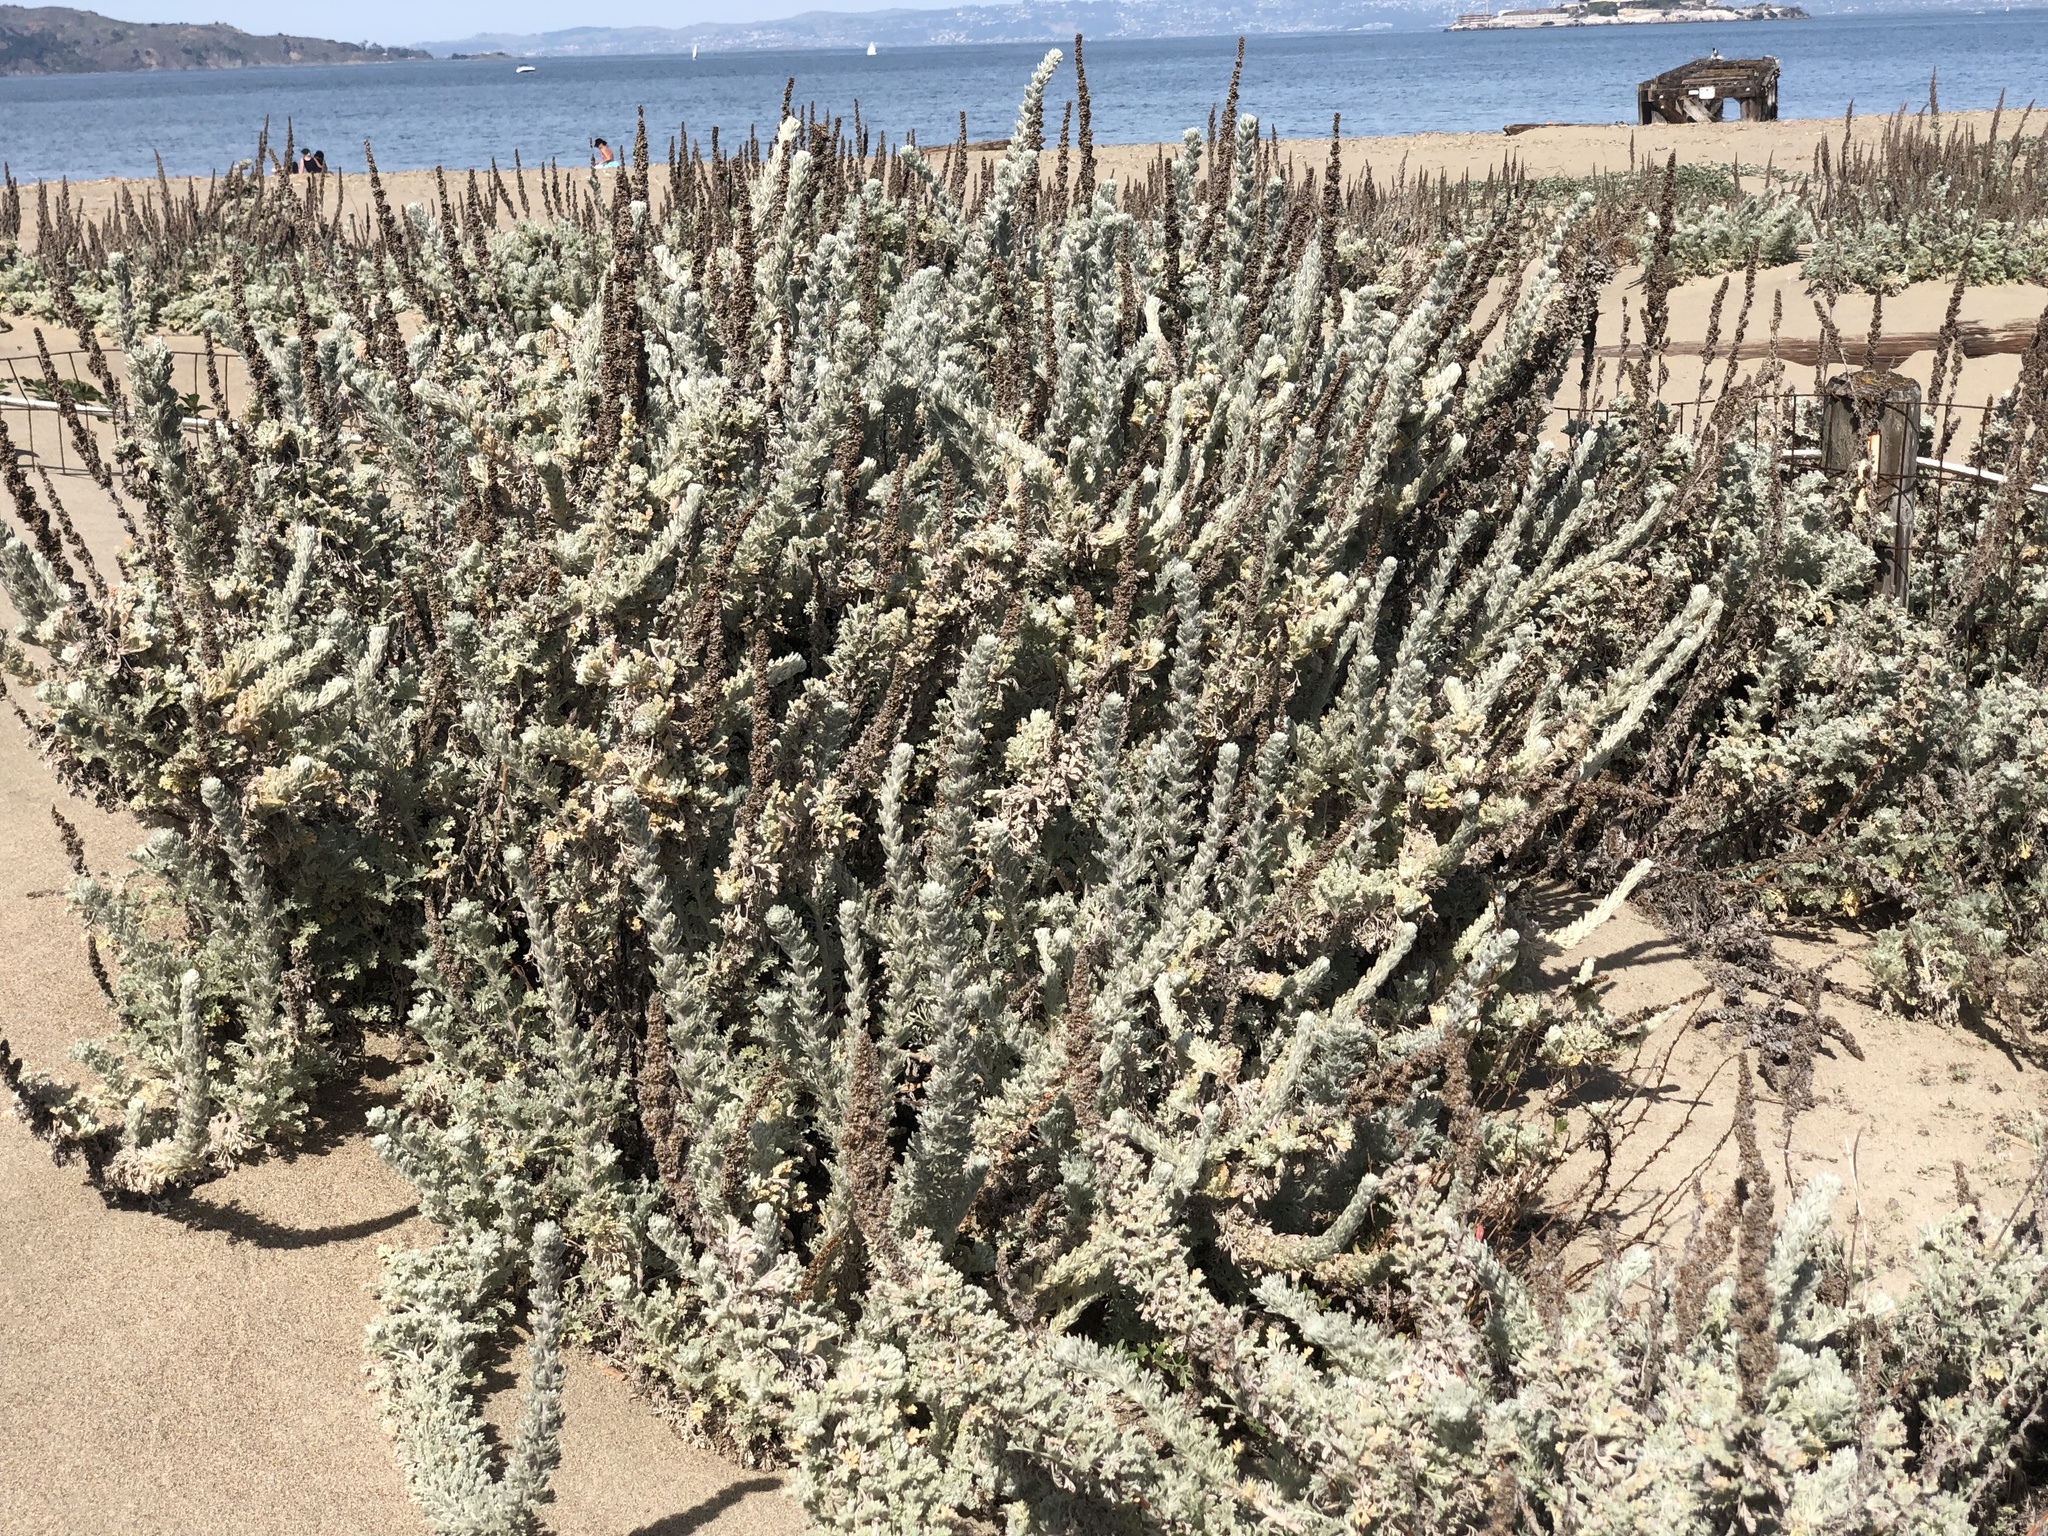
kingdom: Plantae
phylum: Tracheophyta
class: Magnoliopsida
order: Asterales
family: Asteraceae
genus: Artemisia
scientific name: Artemisia pycnocephala
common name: Coastal sagewort
